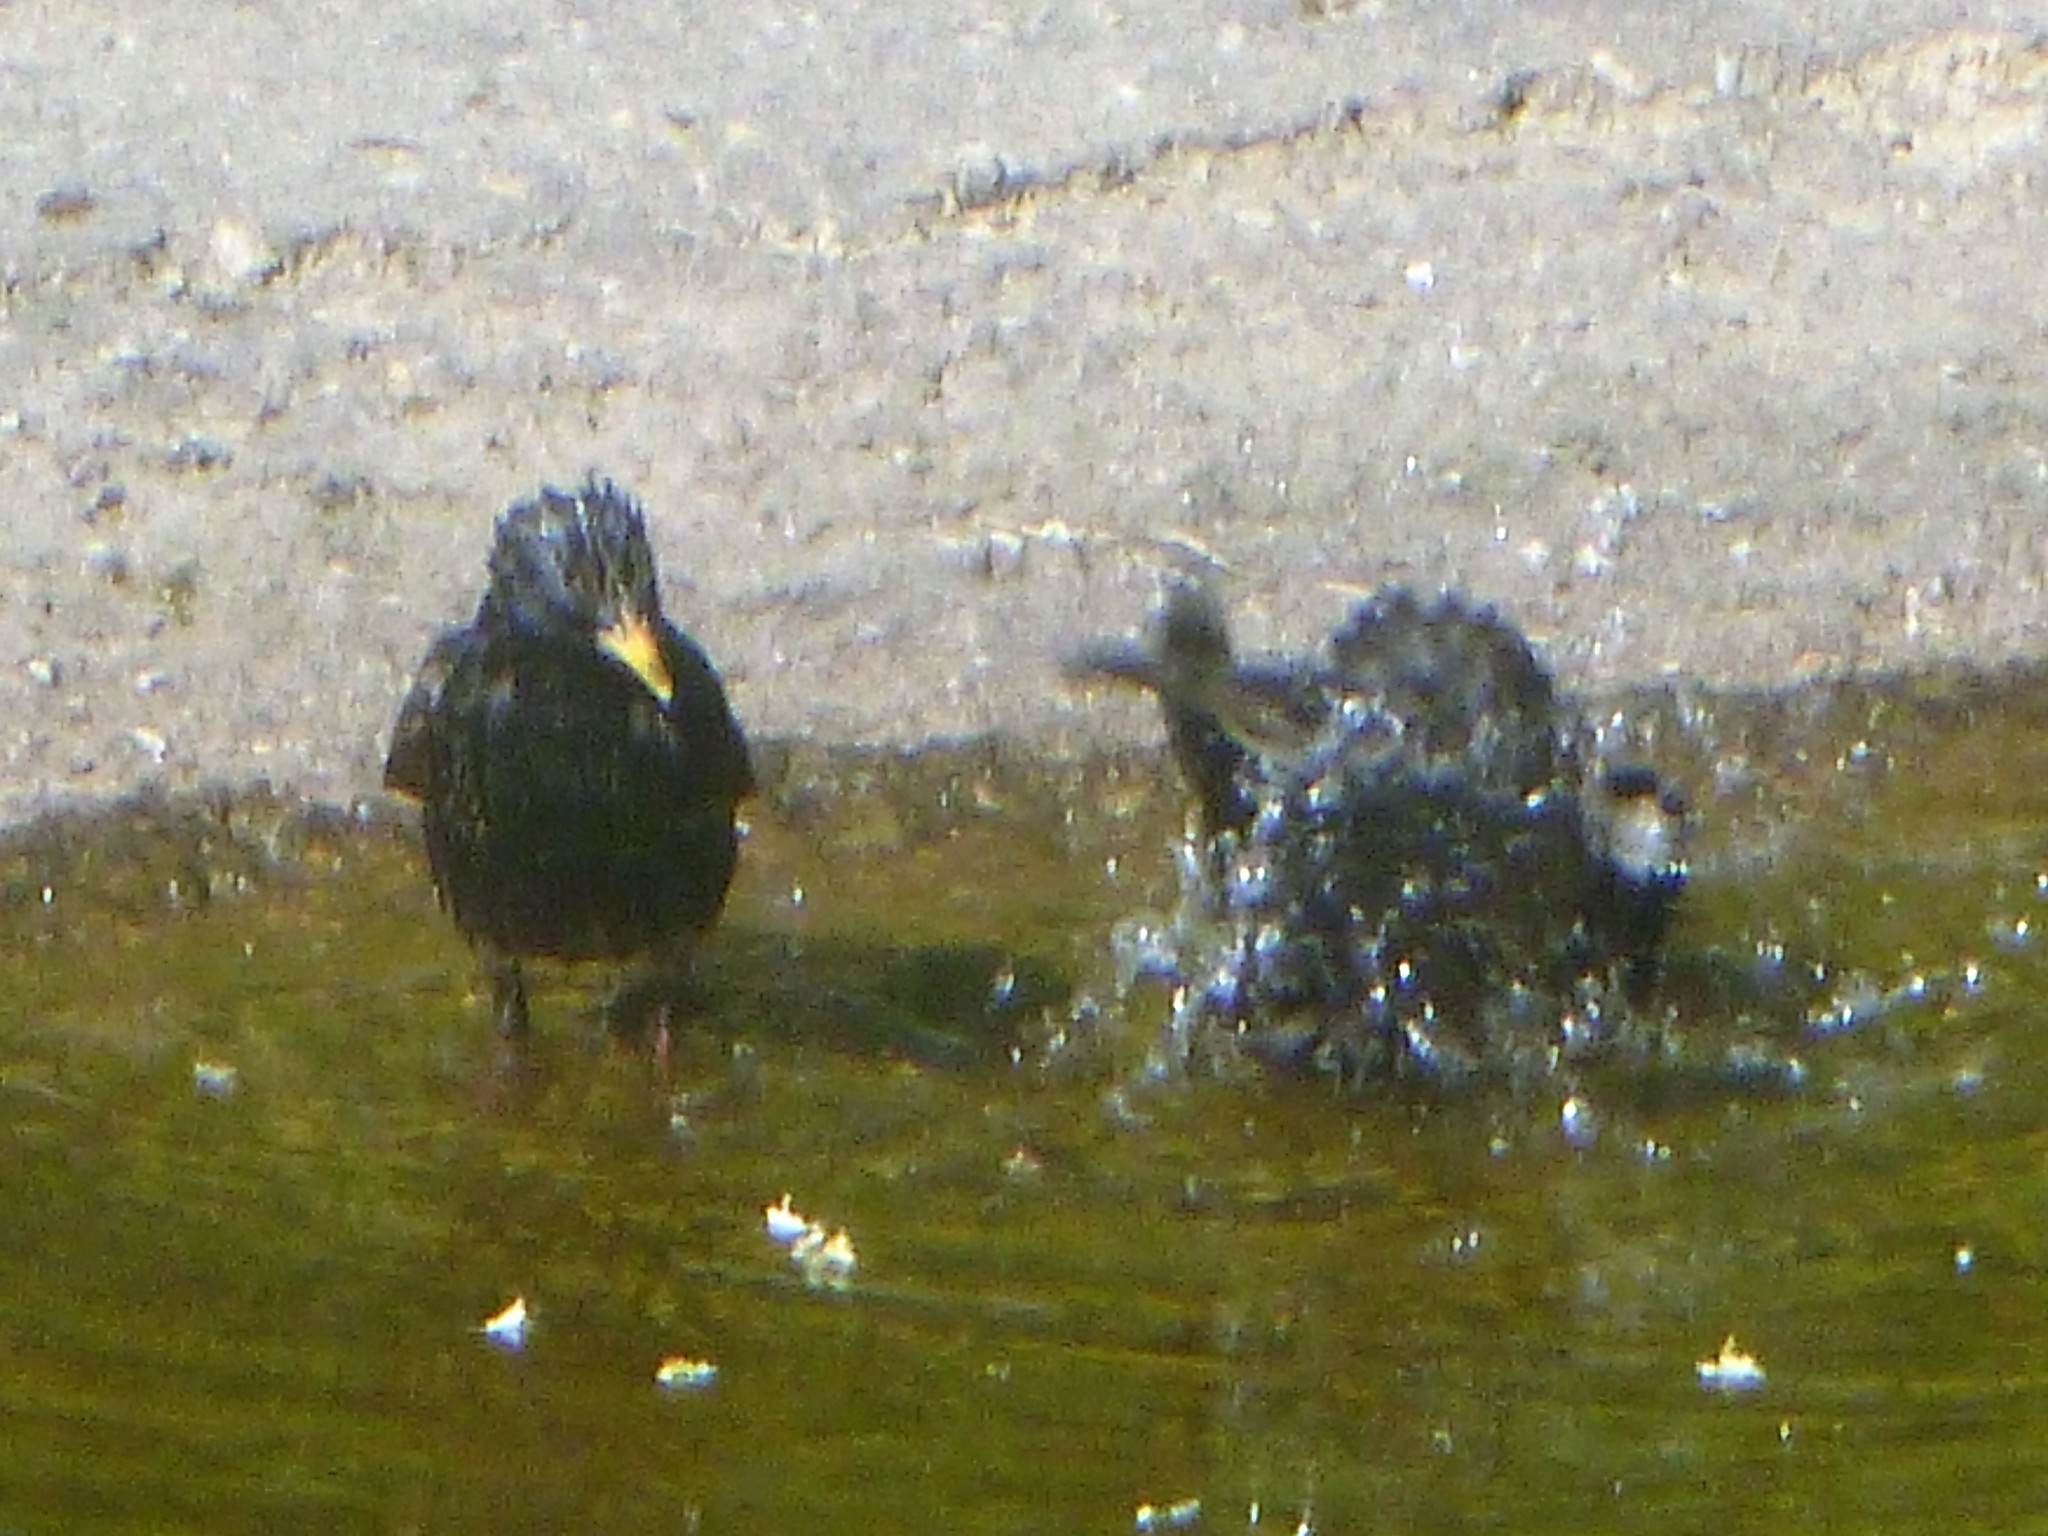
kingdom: Animalia
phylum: Chordata
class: Aves
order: Passeriformes
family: Sturnidae
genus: Sturnus
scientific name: Sturnus vulgaris
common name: Common starling
